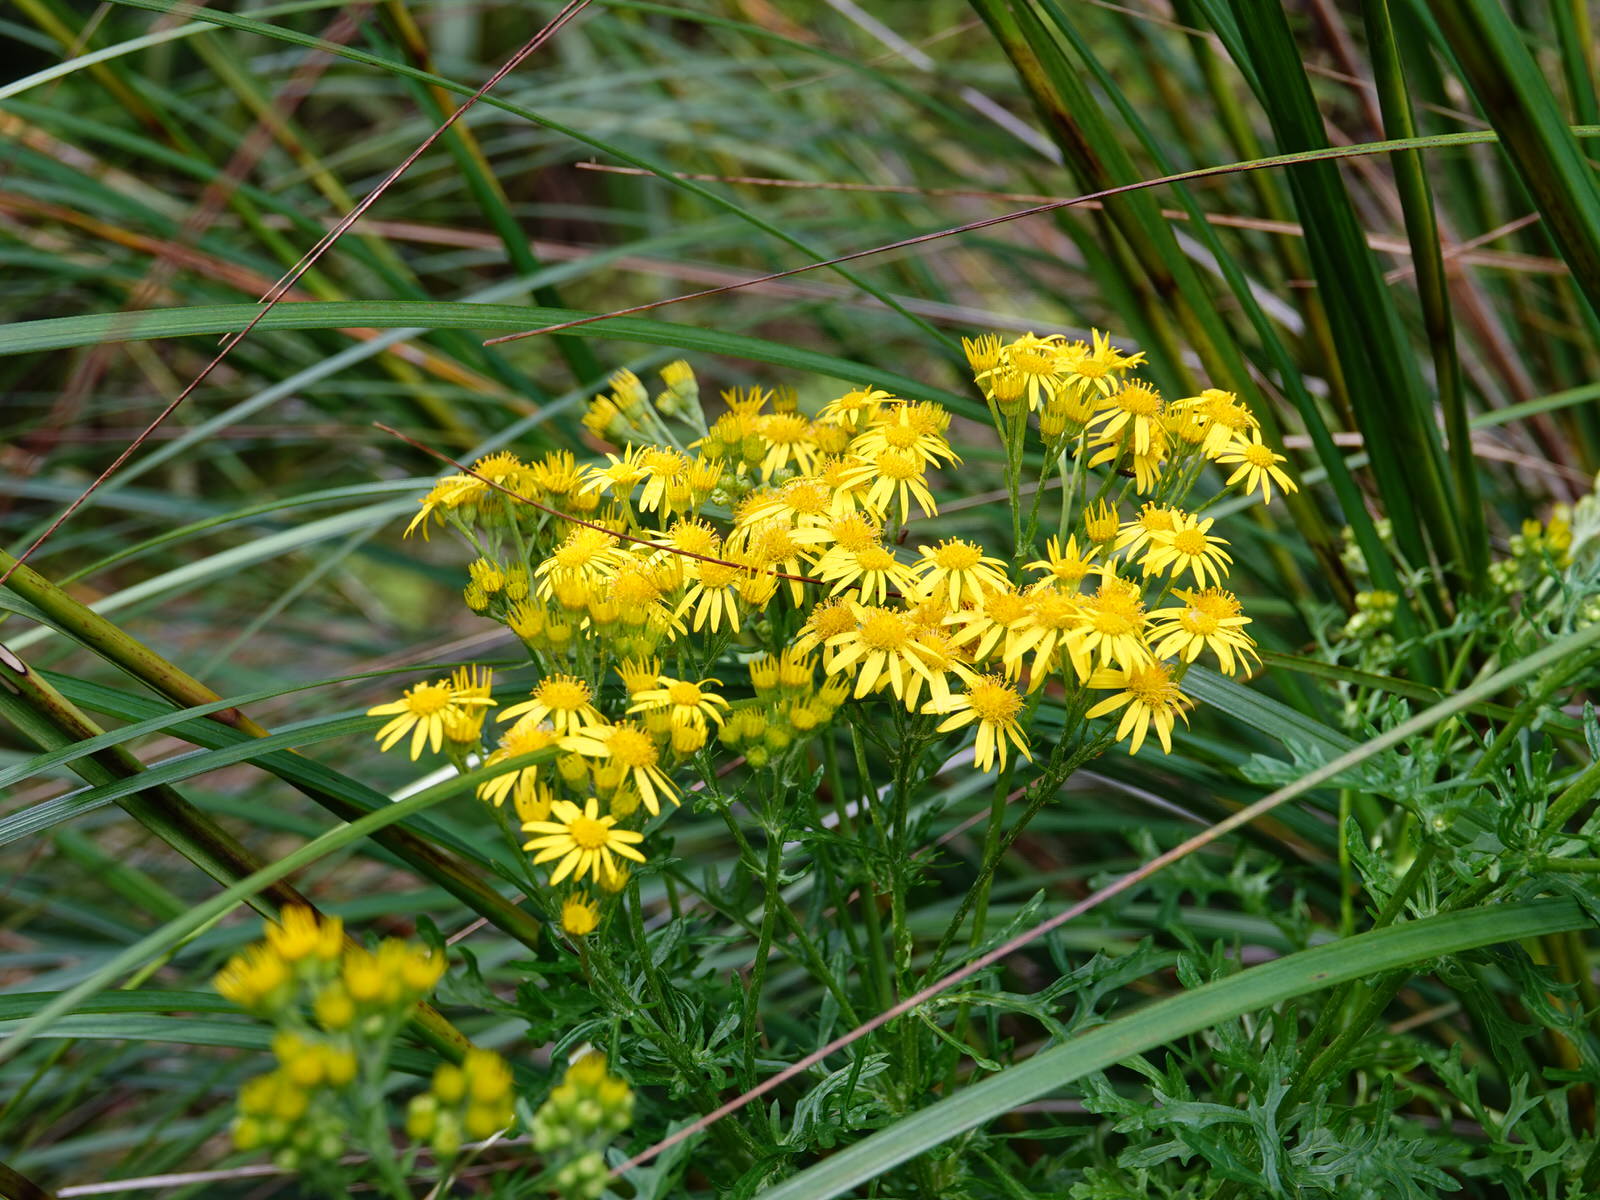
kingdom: Plantae
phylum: Tracheophyta
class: Magnoliopsida
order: Asterales
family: Asteraceae
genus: Jacobaea
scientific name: Jacobaea vulgaris
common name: Stinking willie
